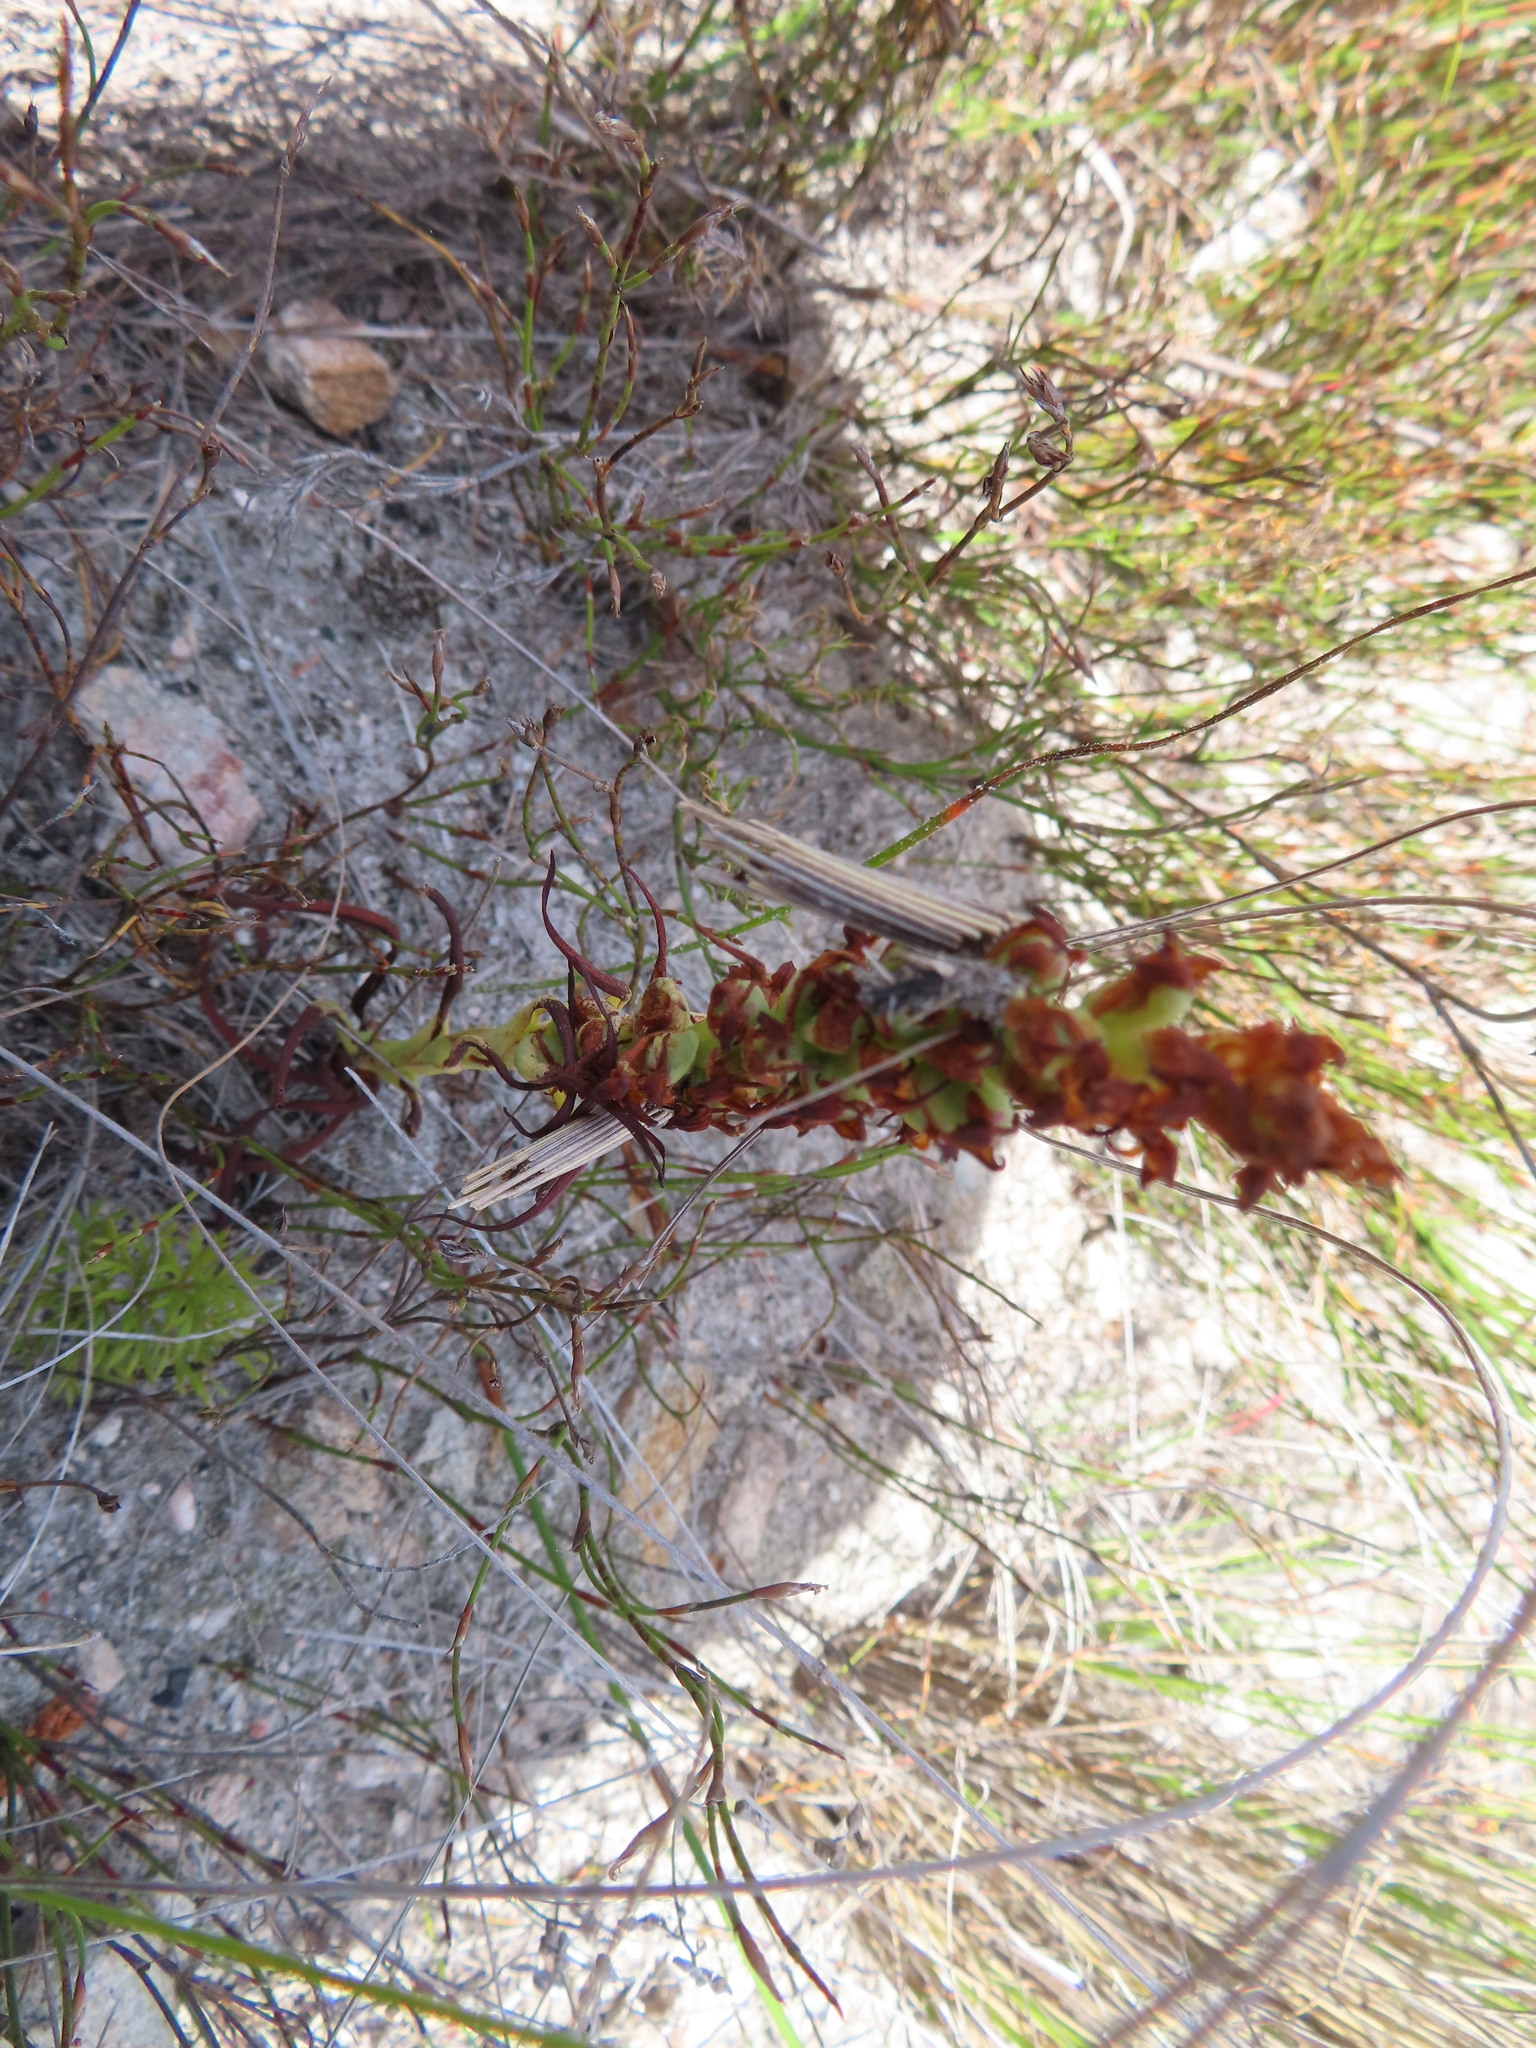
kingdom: Plantae
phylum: Tracheophyta
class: Liliopsida
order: Asparagales
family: Orchidaceae
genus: Disa
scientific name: Disa bracteata
